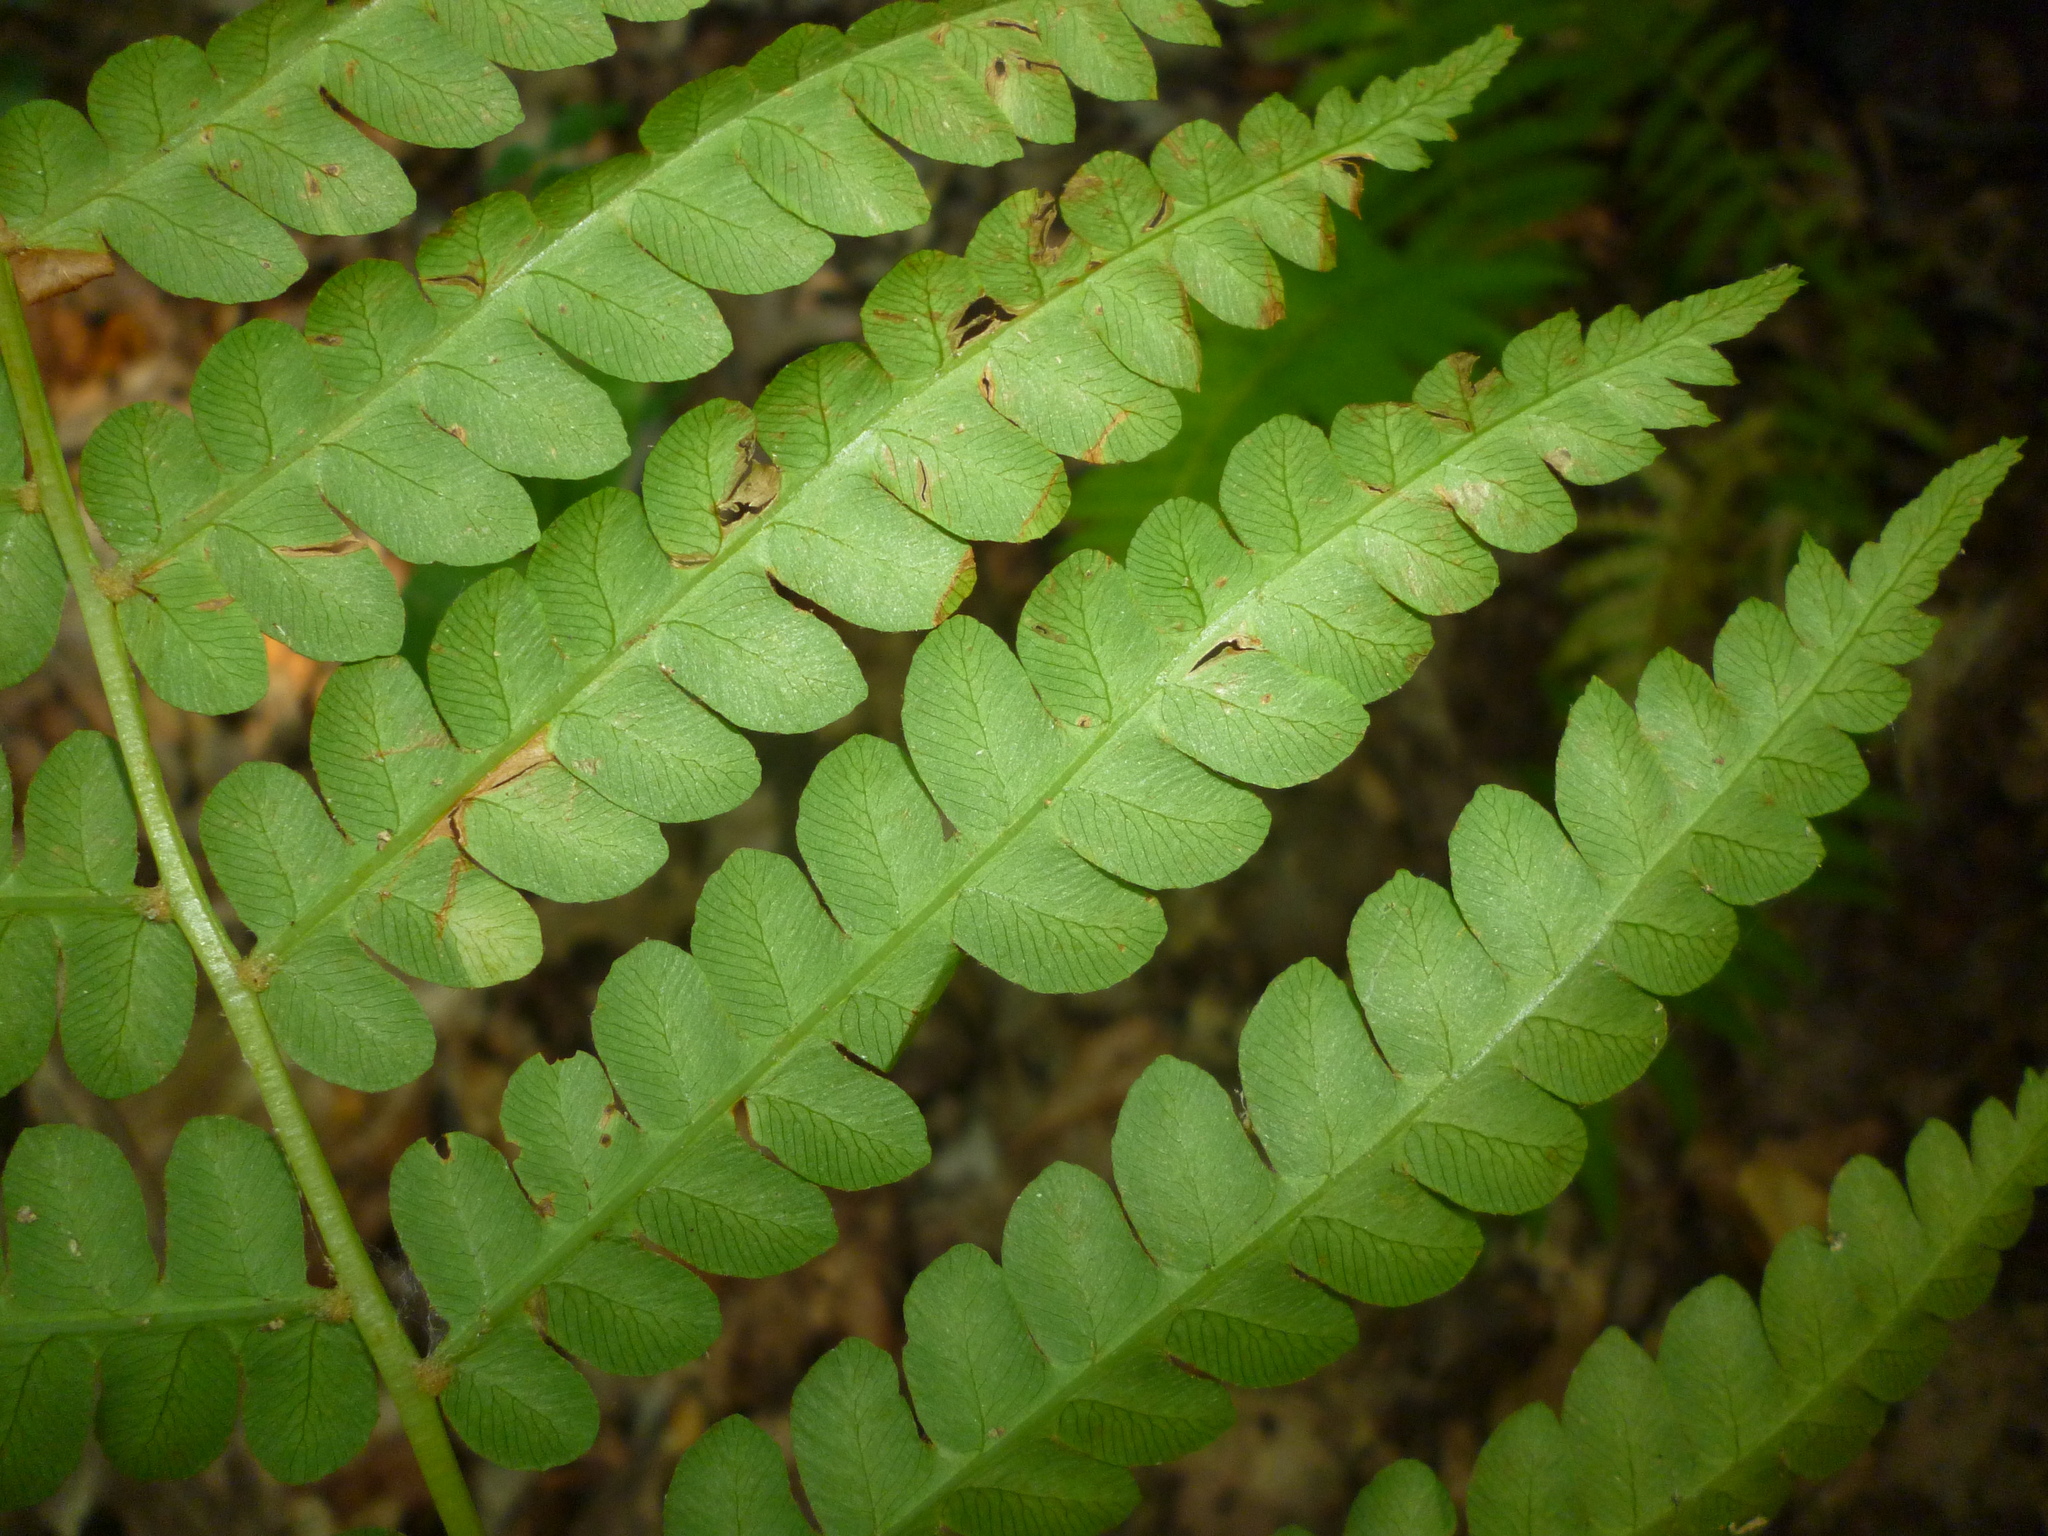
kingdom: Plantae
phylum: Tracheophyta
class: Polypodiopsida
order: Osmundales
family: Osmundaceae
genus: Osmundastrum
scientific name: Osmundastrum cinnamomeum
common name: Cinnamon fern
